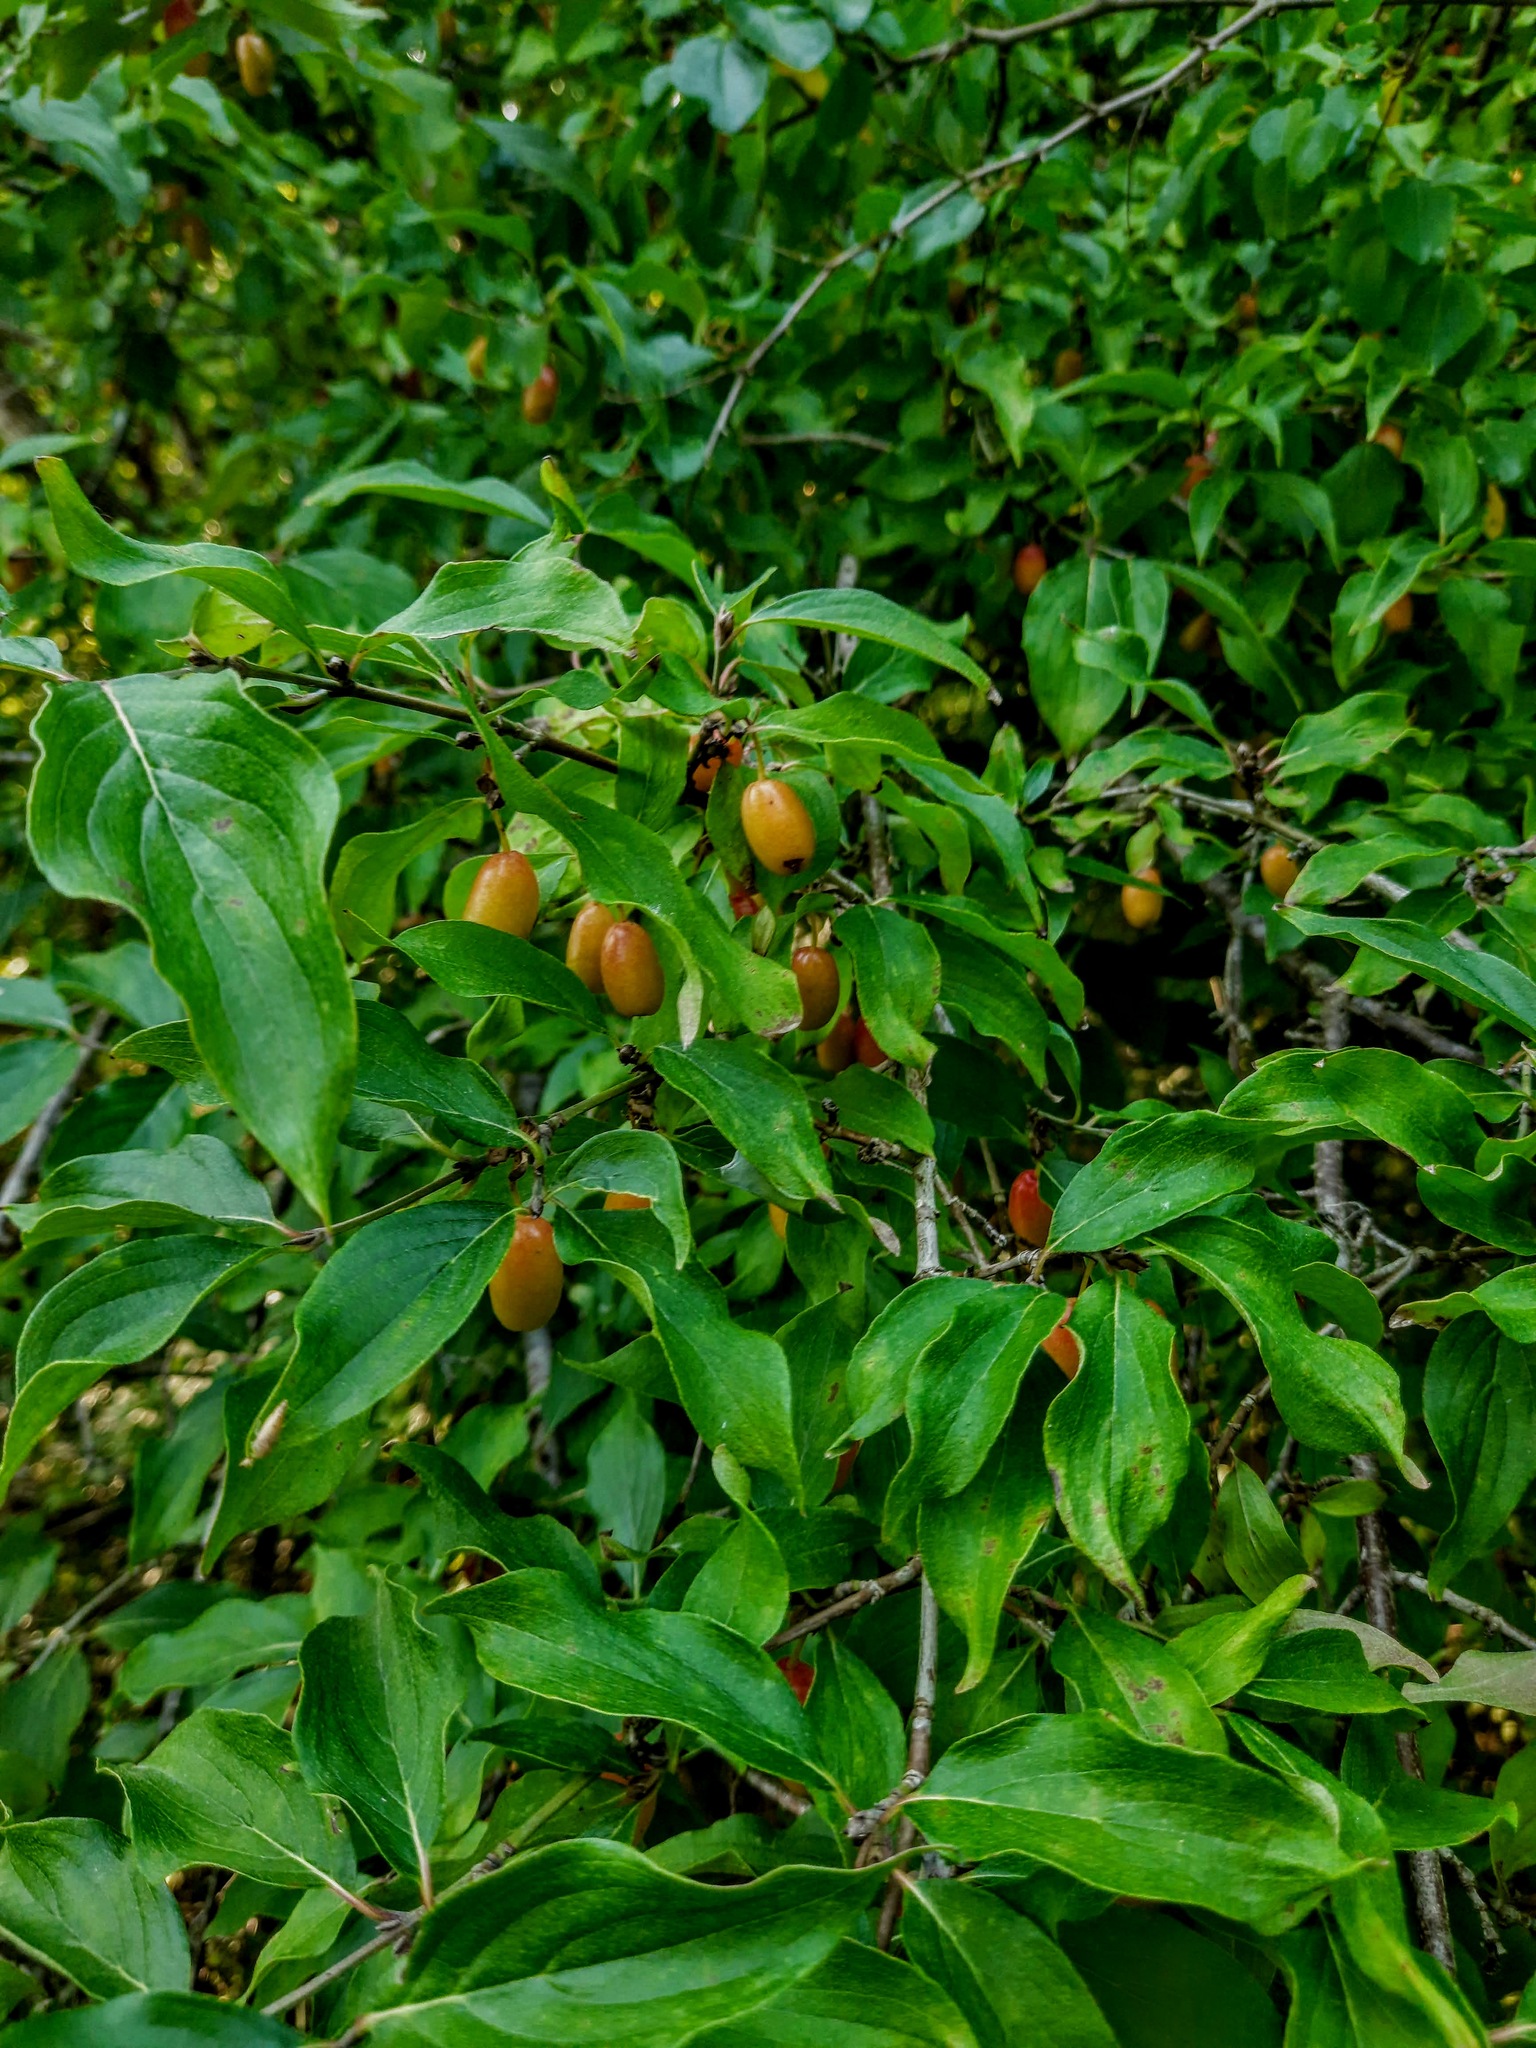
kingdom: Plantae
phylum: Tracheophyta
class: Magnoliopsida
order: Cornales
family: Cornaceae
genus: Cornus
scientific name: Cornus mas
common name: Cornelian-cherry
